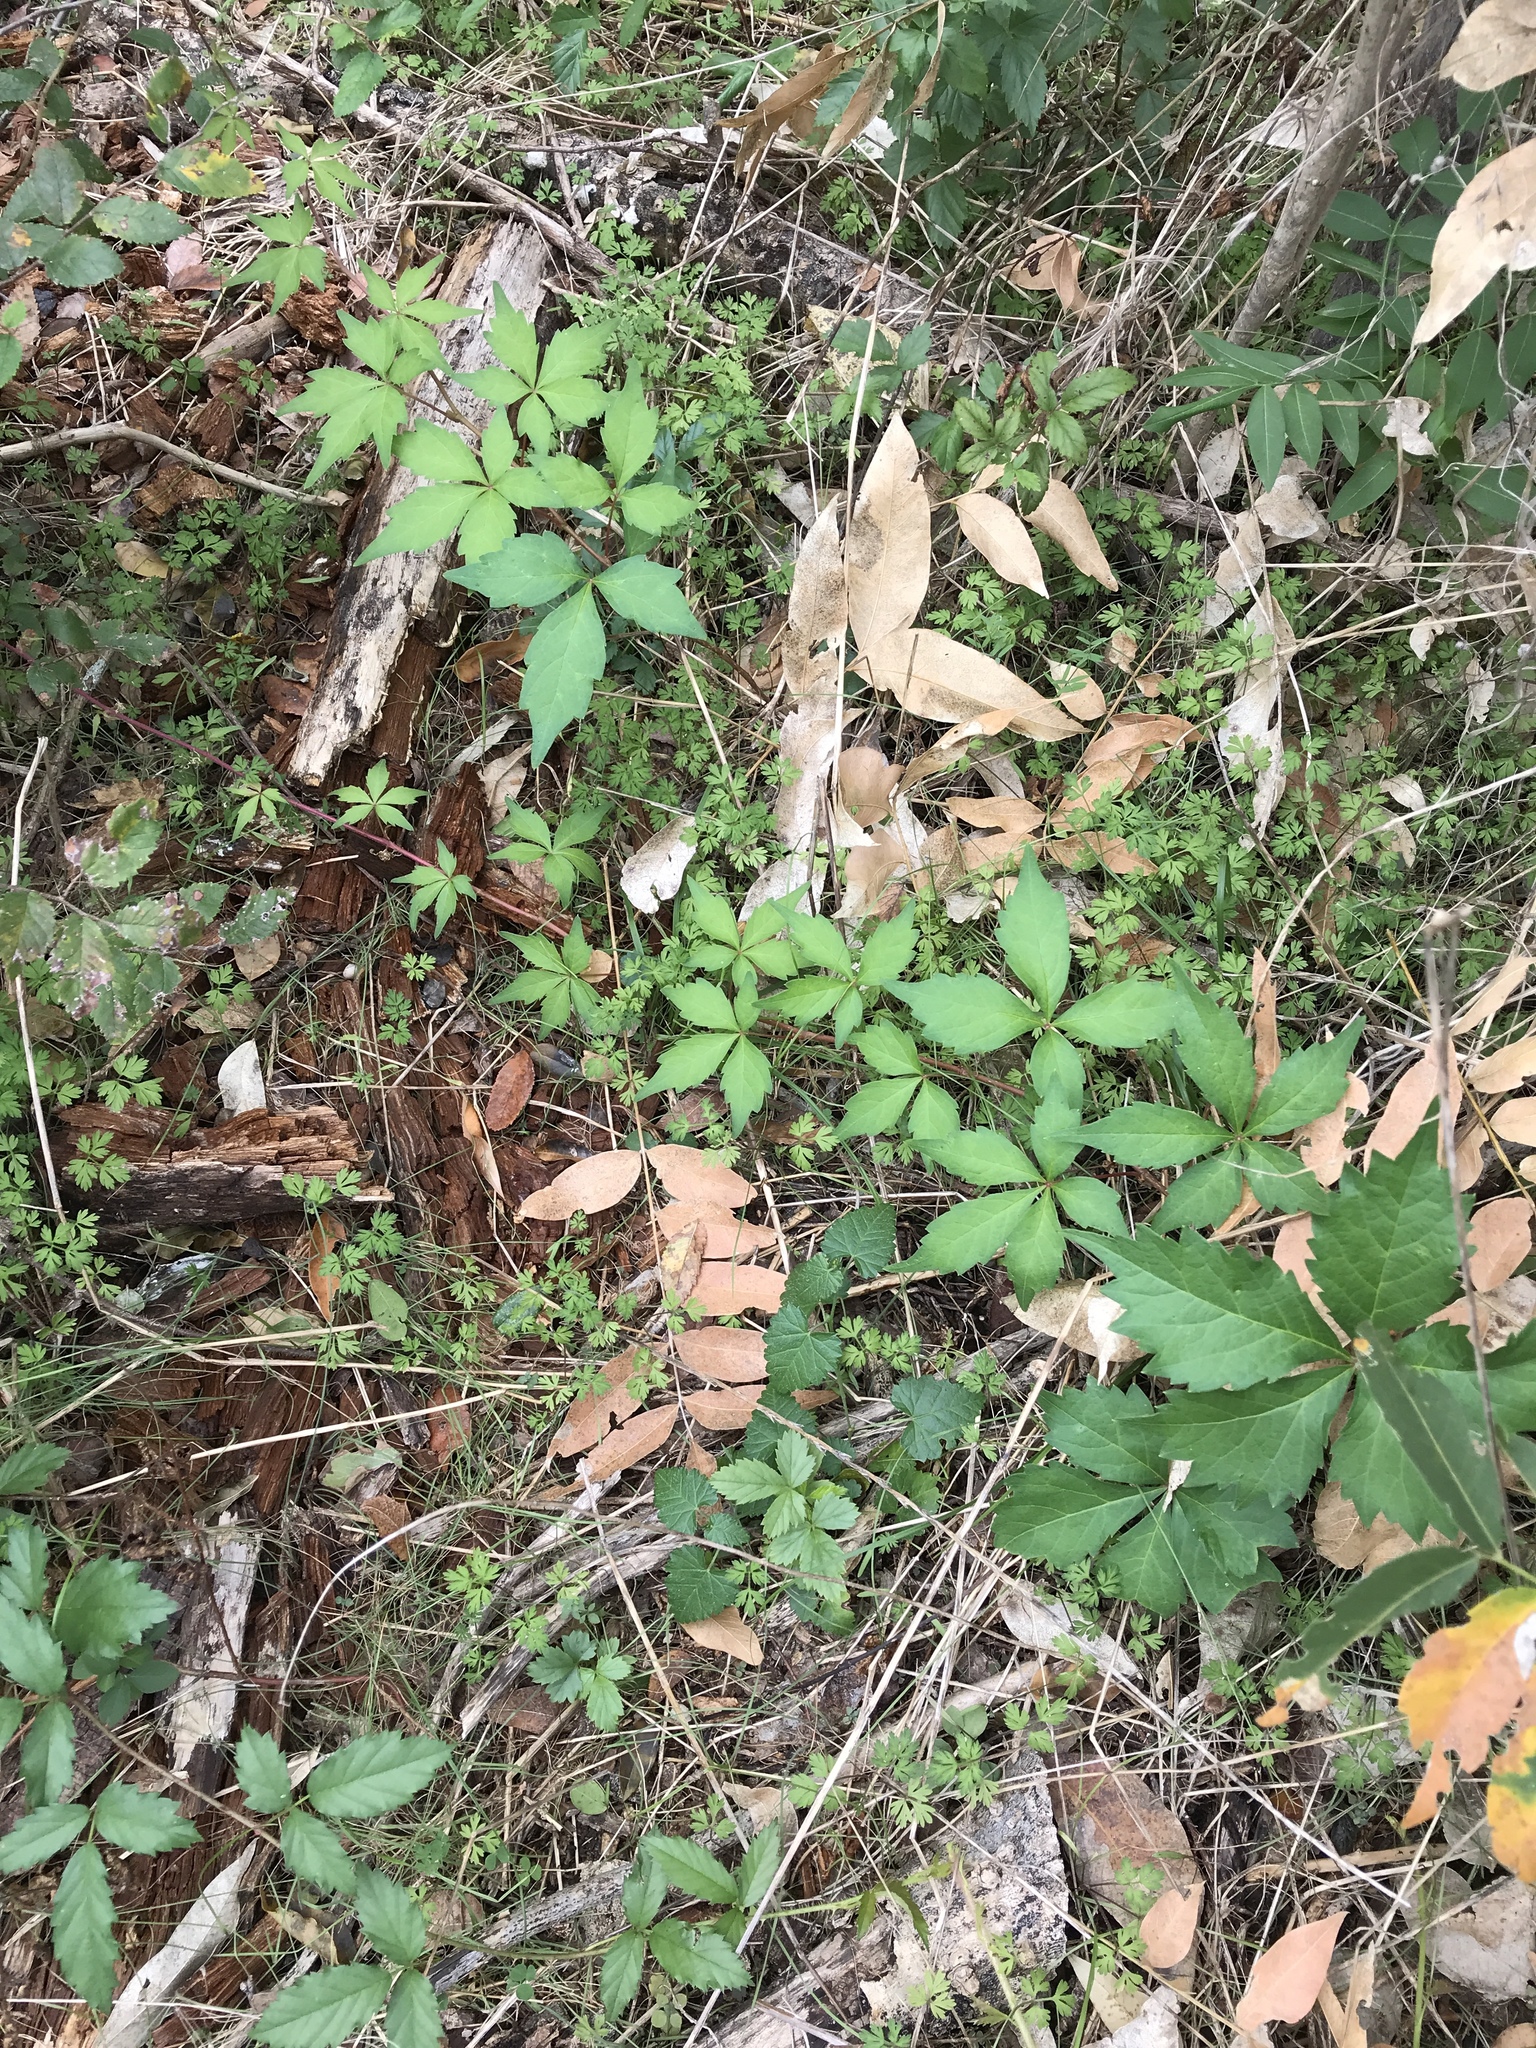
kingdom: Plantae
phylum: Tracheophyta
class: Magnoliopsida
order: Vitales
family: Vitaceae
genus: Parthenocissus
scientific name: Parthenocissus quinquefolia
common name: Virginia-creeper
